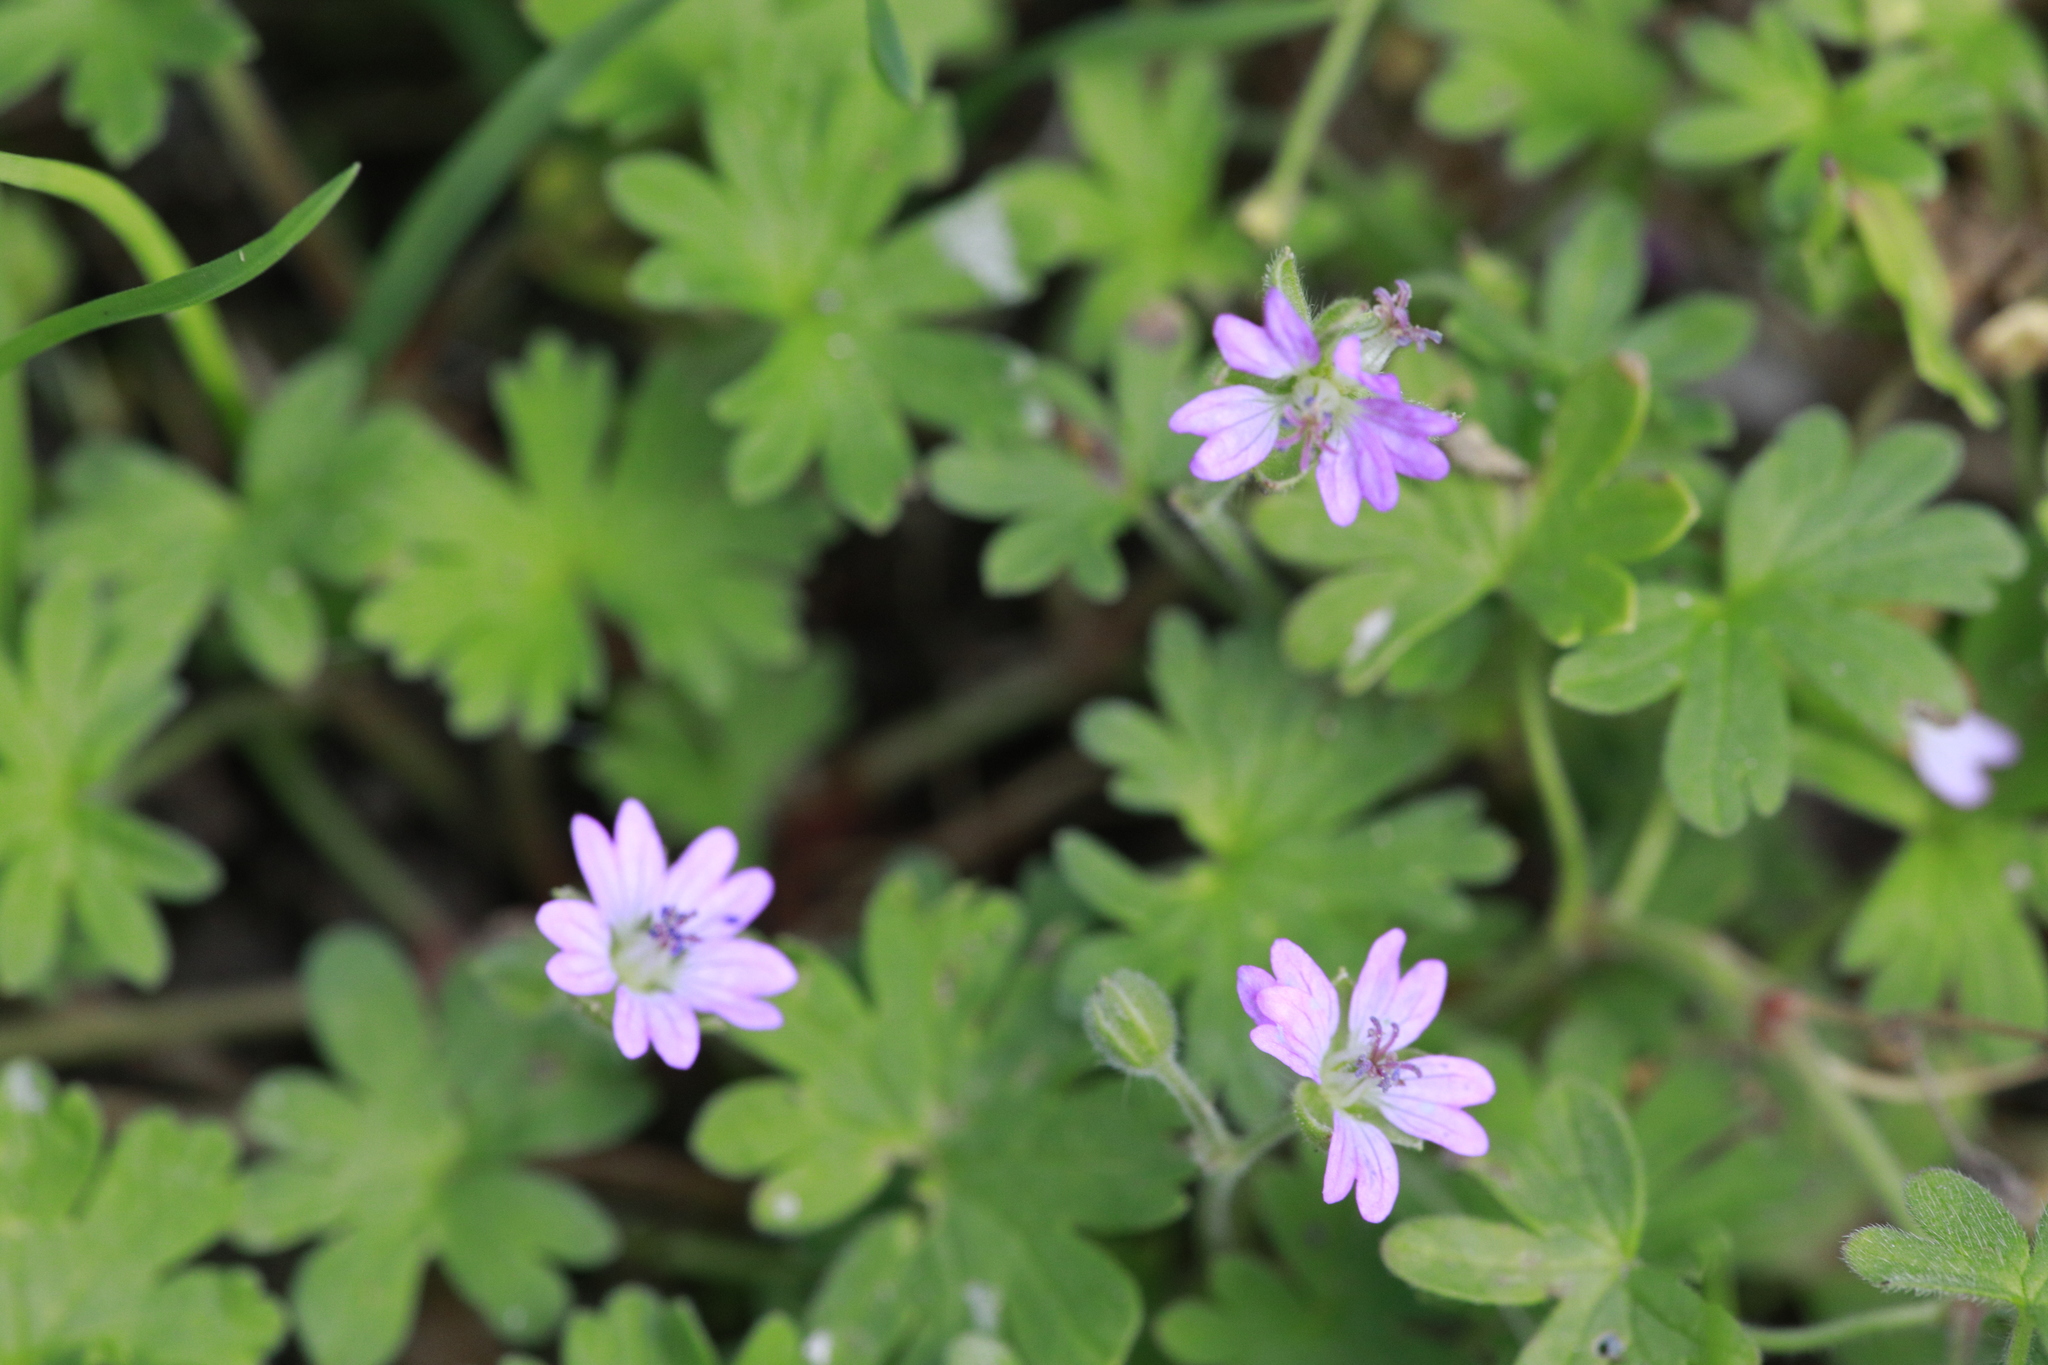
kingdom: Plantae
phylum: Tracheophyta
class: Magnoliopsida
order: Geraniales
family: Geraniaceae
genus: Geranium
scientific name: Geranium molle
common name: Dove's-foot crane's-bill
